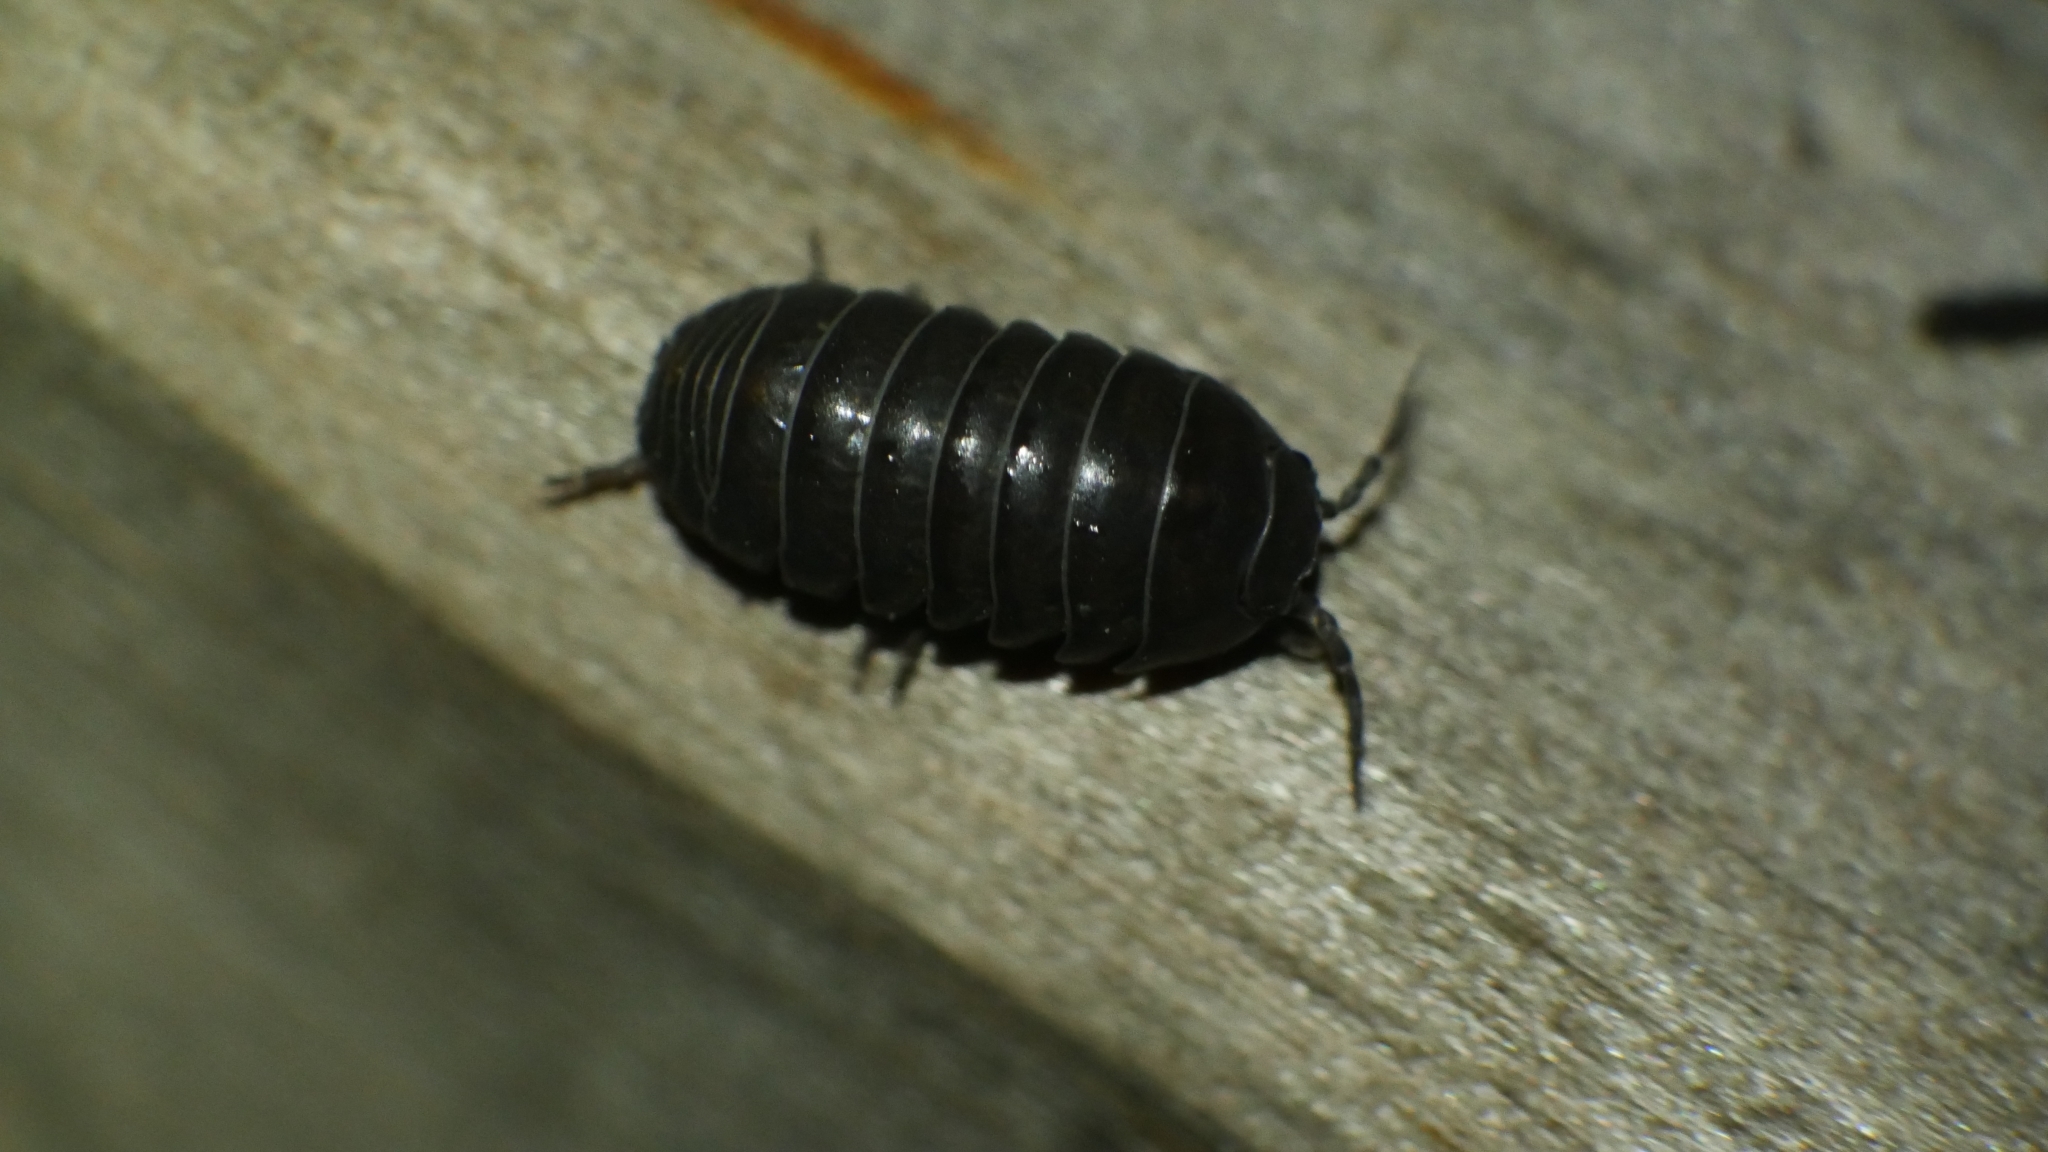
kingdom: Animalia
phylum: Arthropoda
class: Malacostraca
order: Isopoda
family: Armadillidiidae
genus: Armadillidium
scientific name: Armadillidium vulgare
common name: Common pill woodlouse
